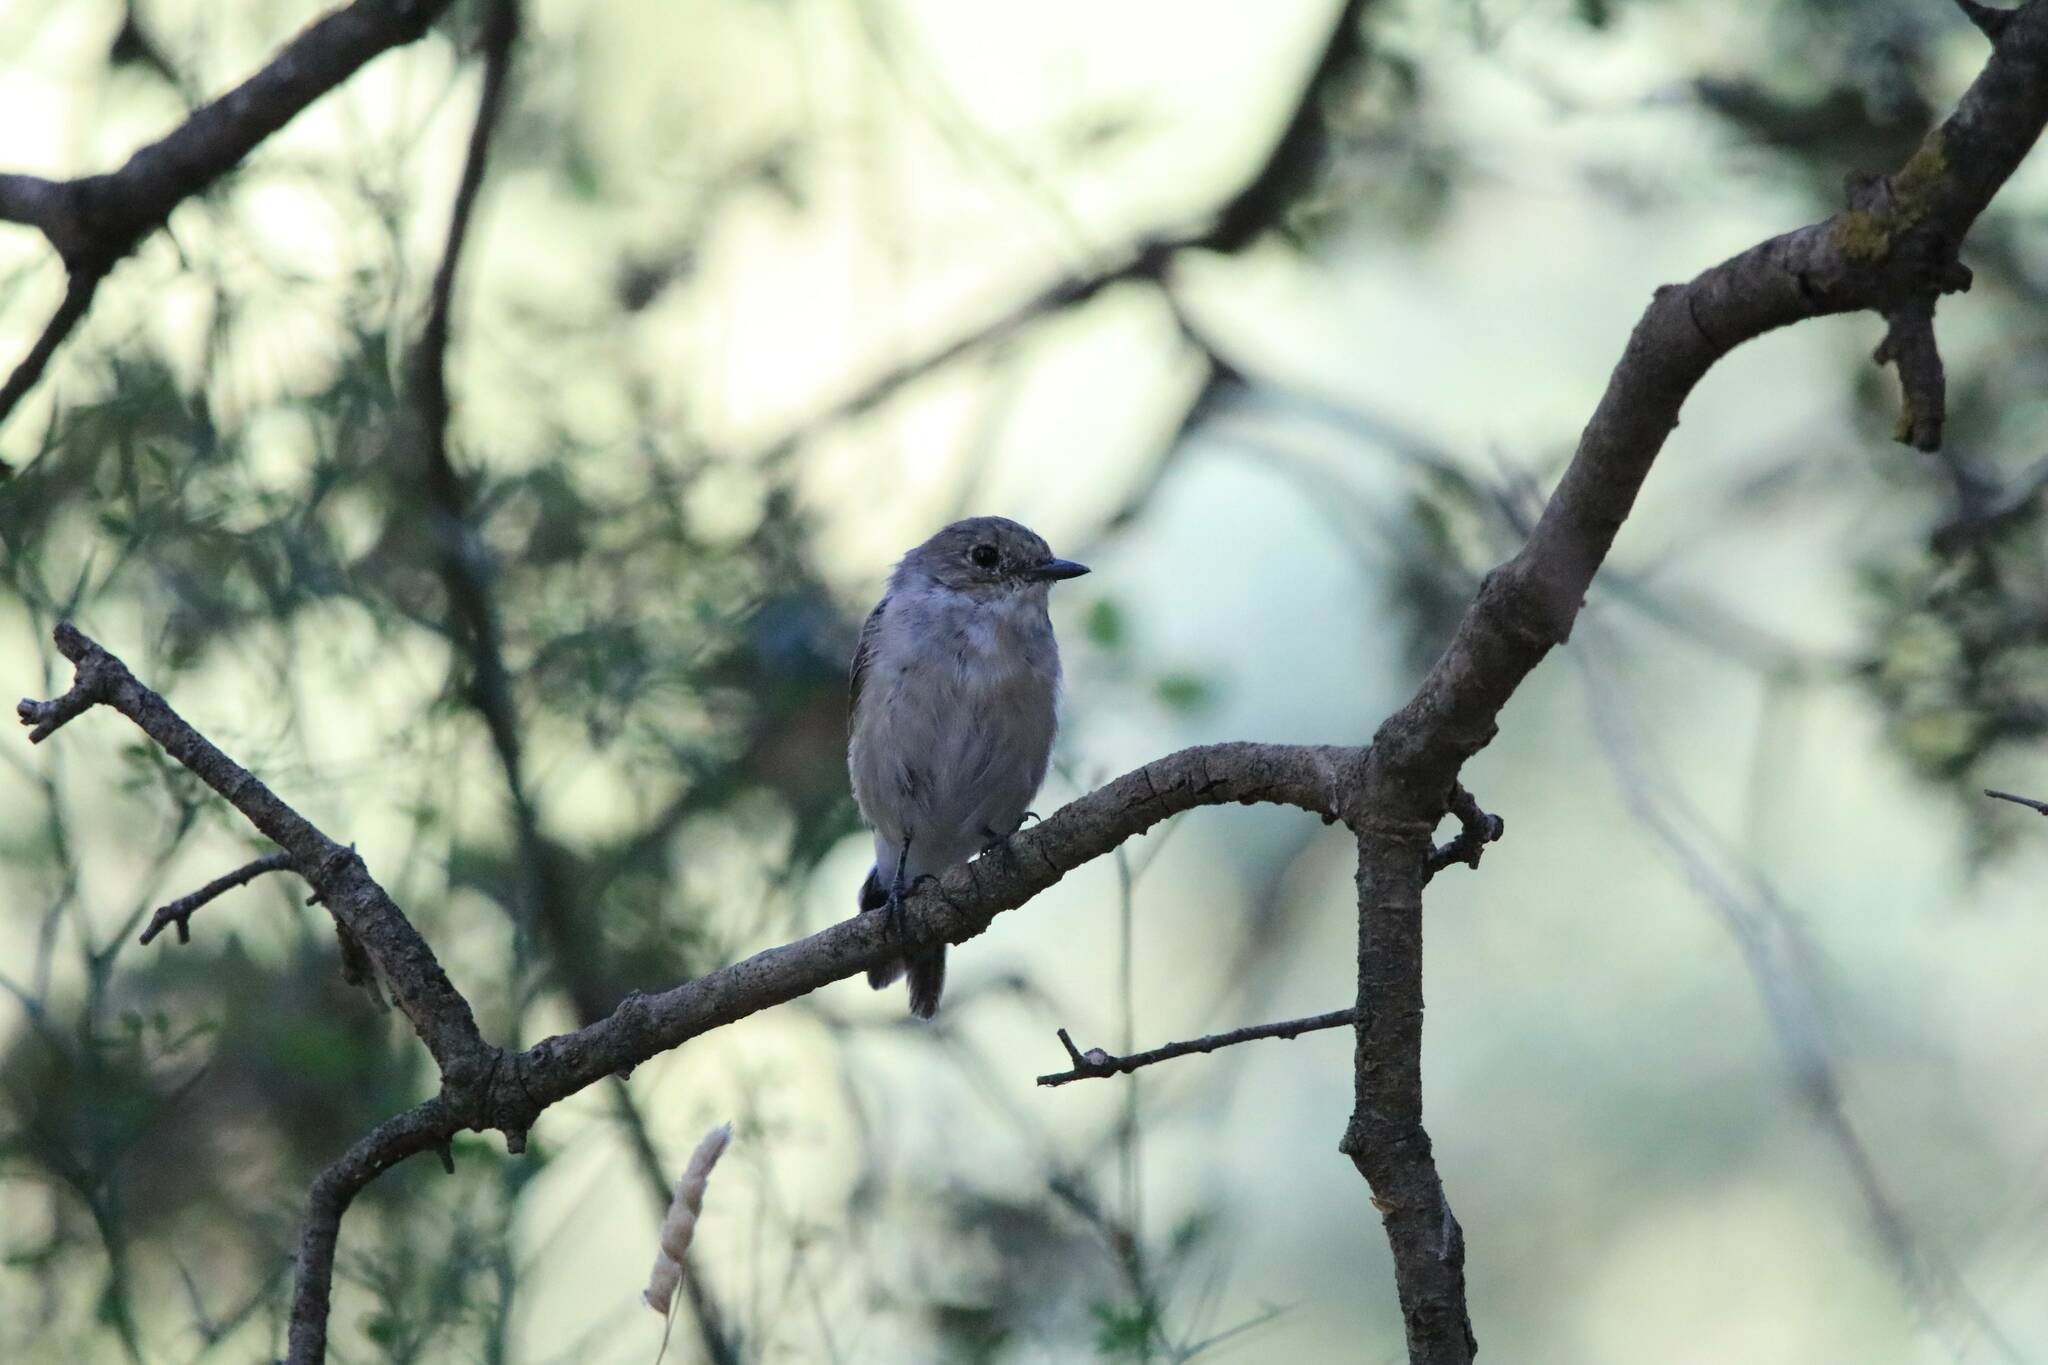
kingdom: Animalia
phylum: Chordata
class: Aves
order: Passeriformes
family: Muscicapidae
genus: Ficedula
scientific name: Ficedula hypoleuca
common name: European pied flycatcher
